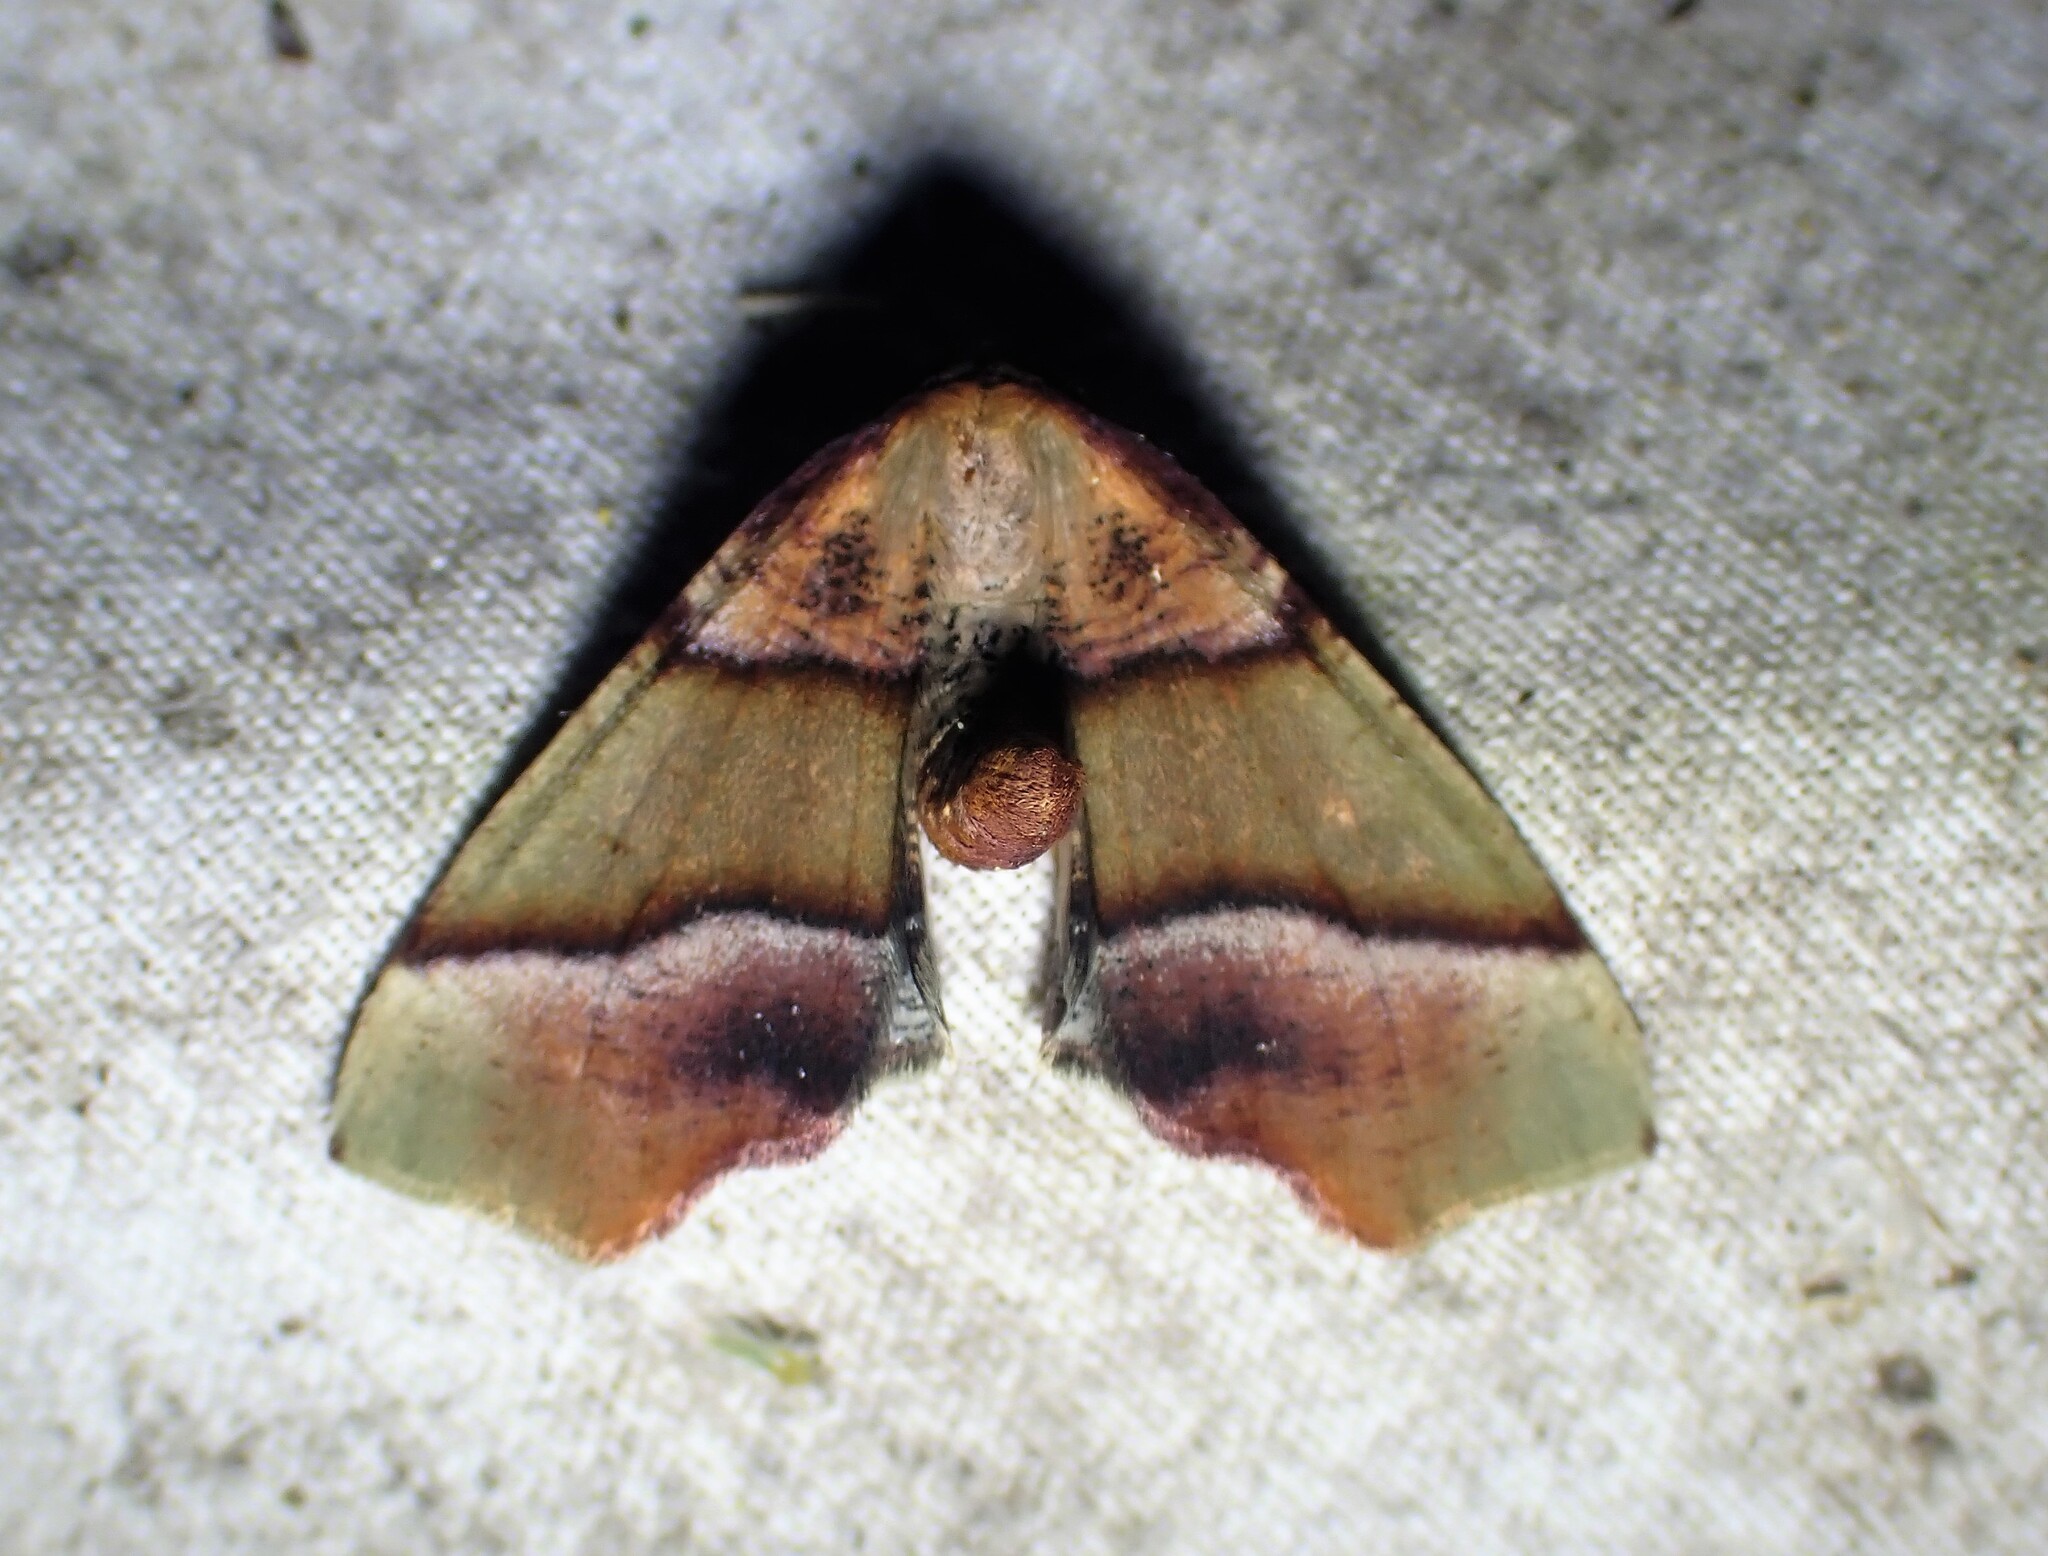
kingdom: Animalia
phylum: Arthropoda
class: Insecta
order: Lepidoptera
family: Geometridae
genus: Plagodis
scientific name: Plagodis phlogosaria
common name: Straight-lined plagodis
